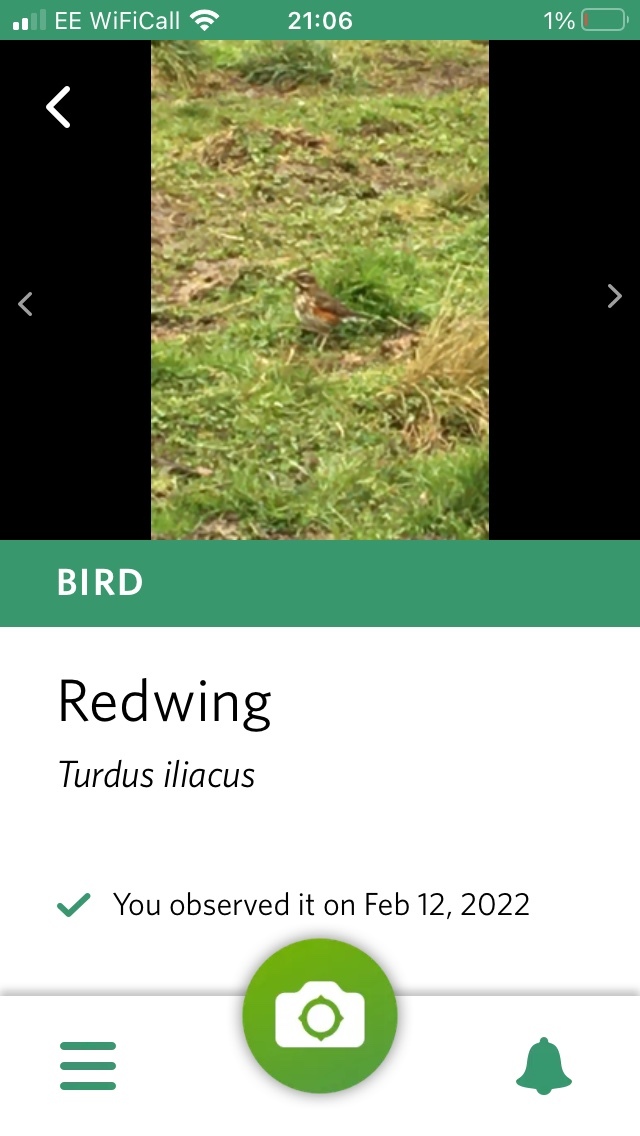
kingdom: Animalia
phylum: Chordata
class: Aves
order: Passeriformes
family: Turdidae
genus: Turdus
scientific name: Turdus iliacus
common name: Redwing
